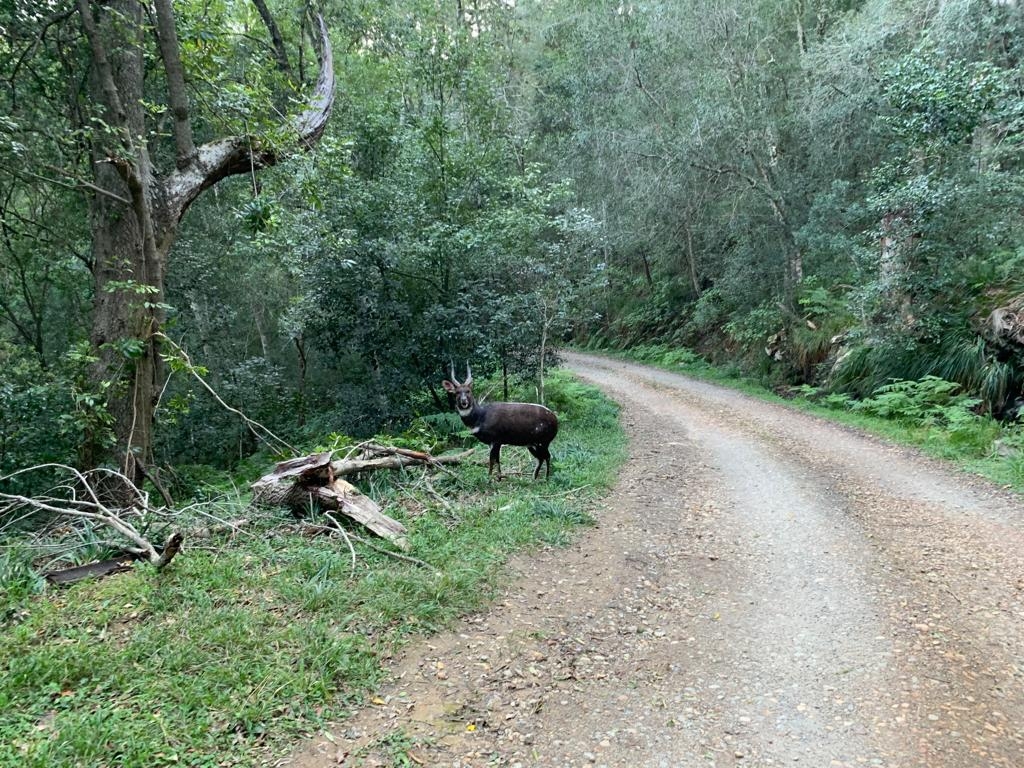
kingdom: Animalia
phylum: Chordata
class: Mammalia
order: Artiodactyla
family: Bovidae
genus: Tragelaphus
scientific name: Tragelaphus scriptus
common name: Bushbuck
